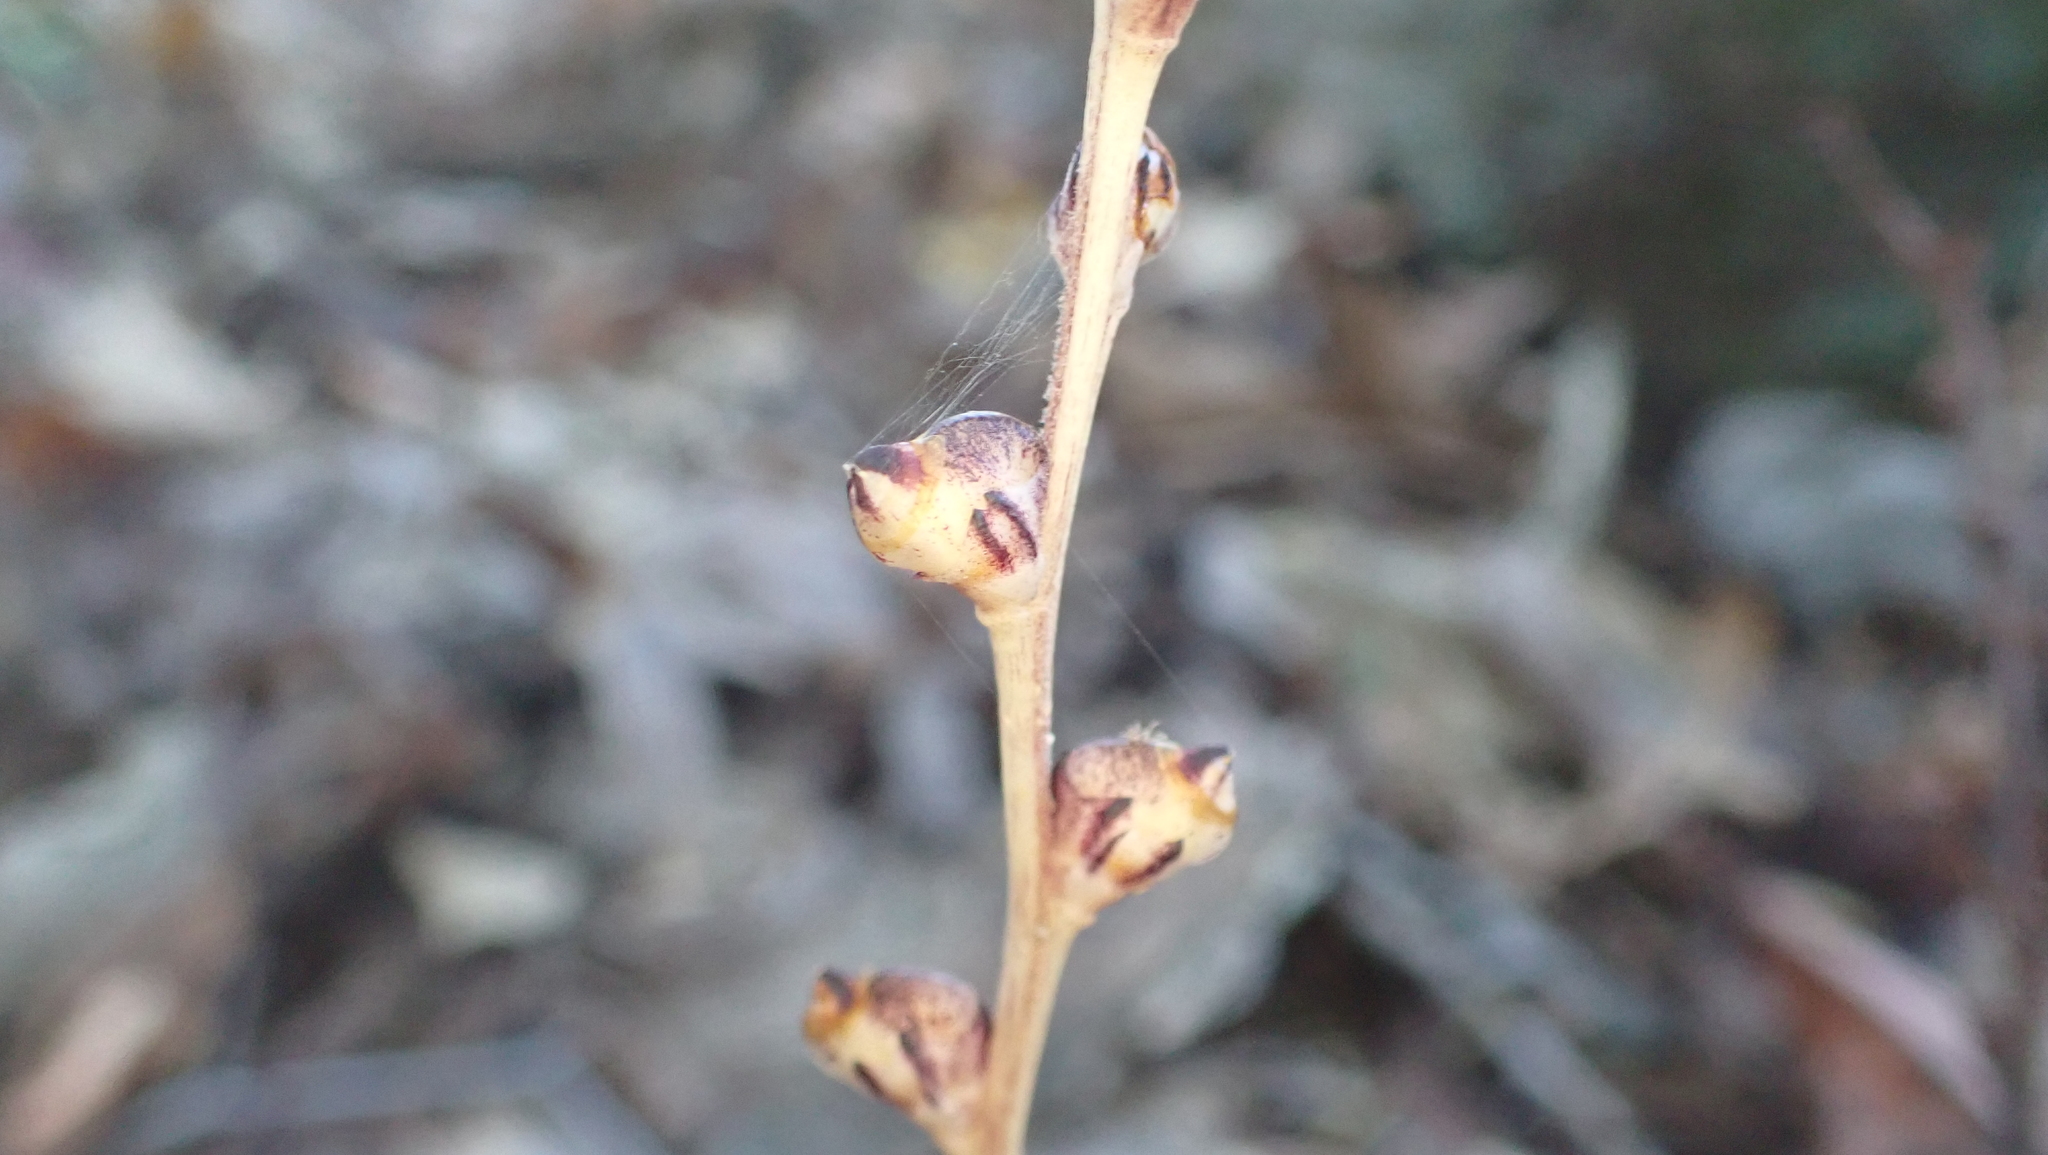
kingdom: Plantae
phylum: Tracheophyta
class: Magnoliopsida
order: Lamiales
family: Orobanchaceae
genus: Epifagus
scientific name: Epifagus virginiana
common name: Beechdrops
